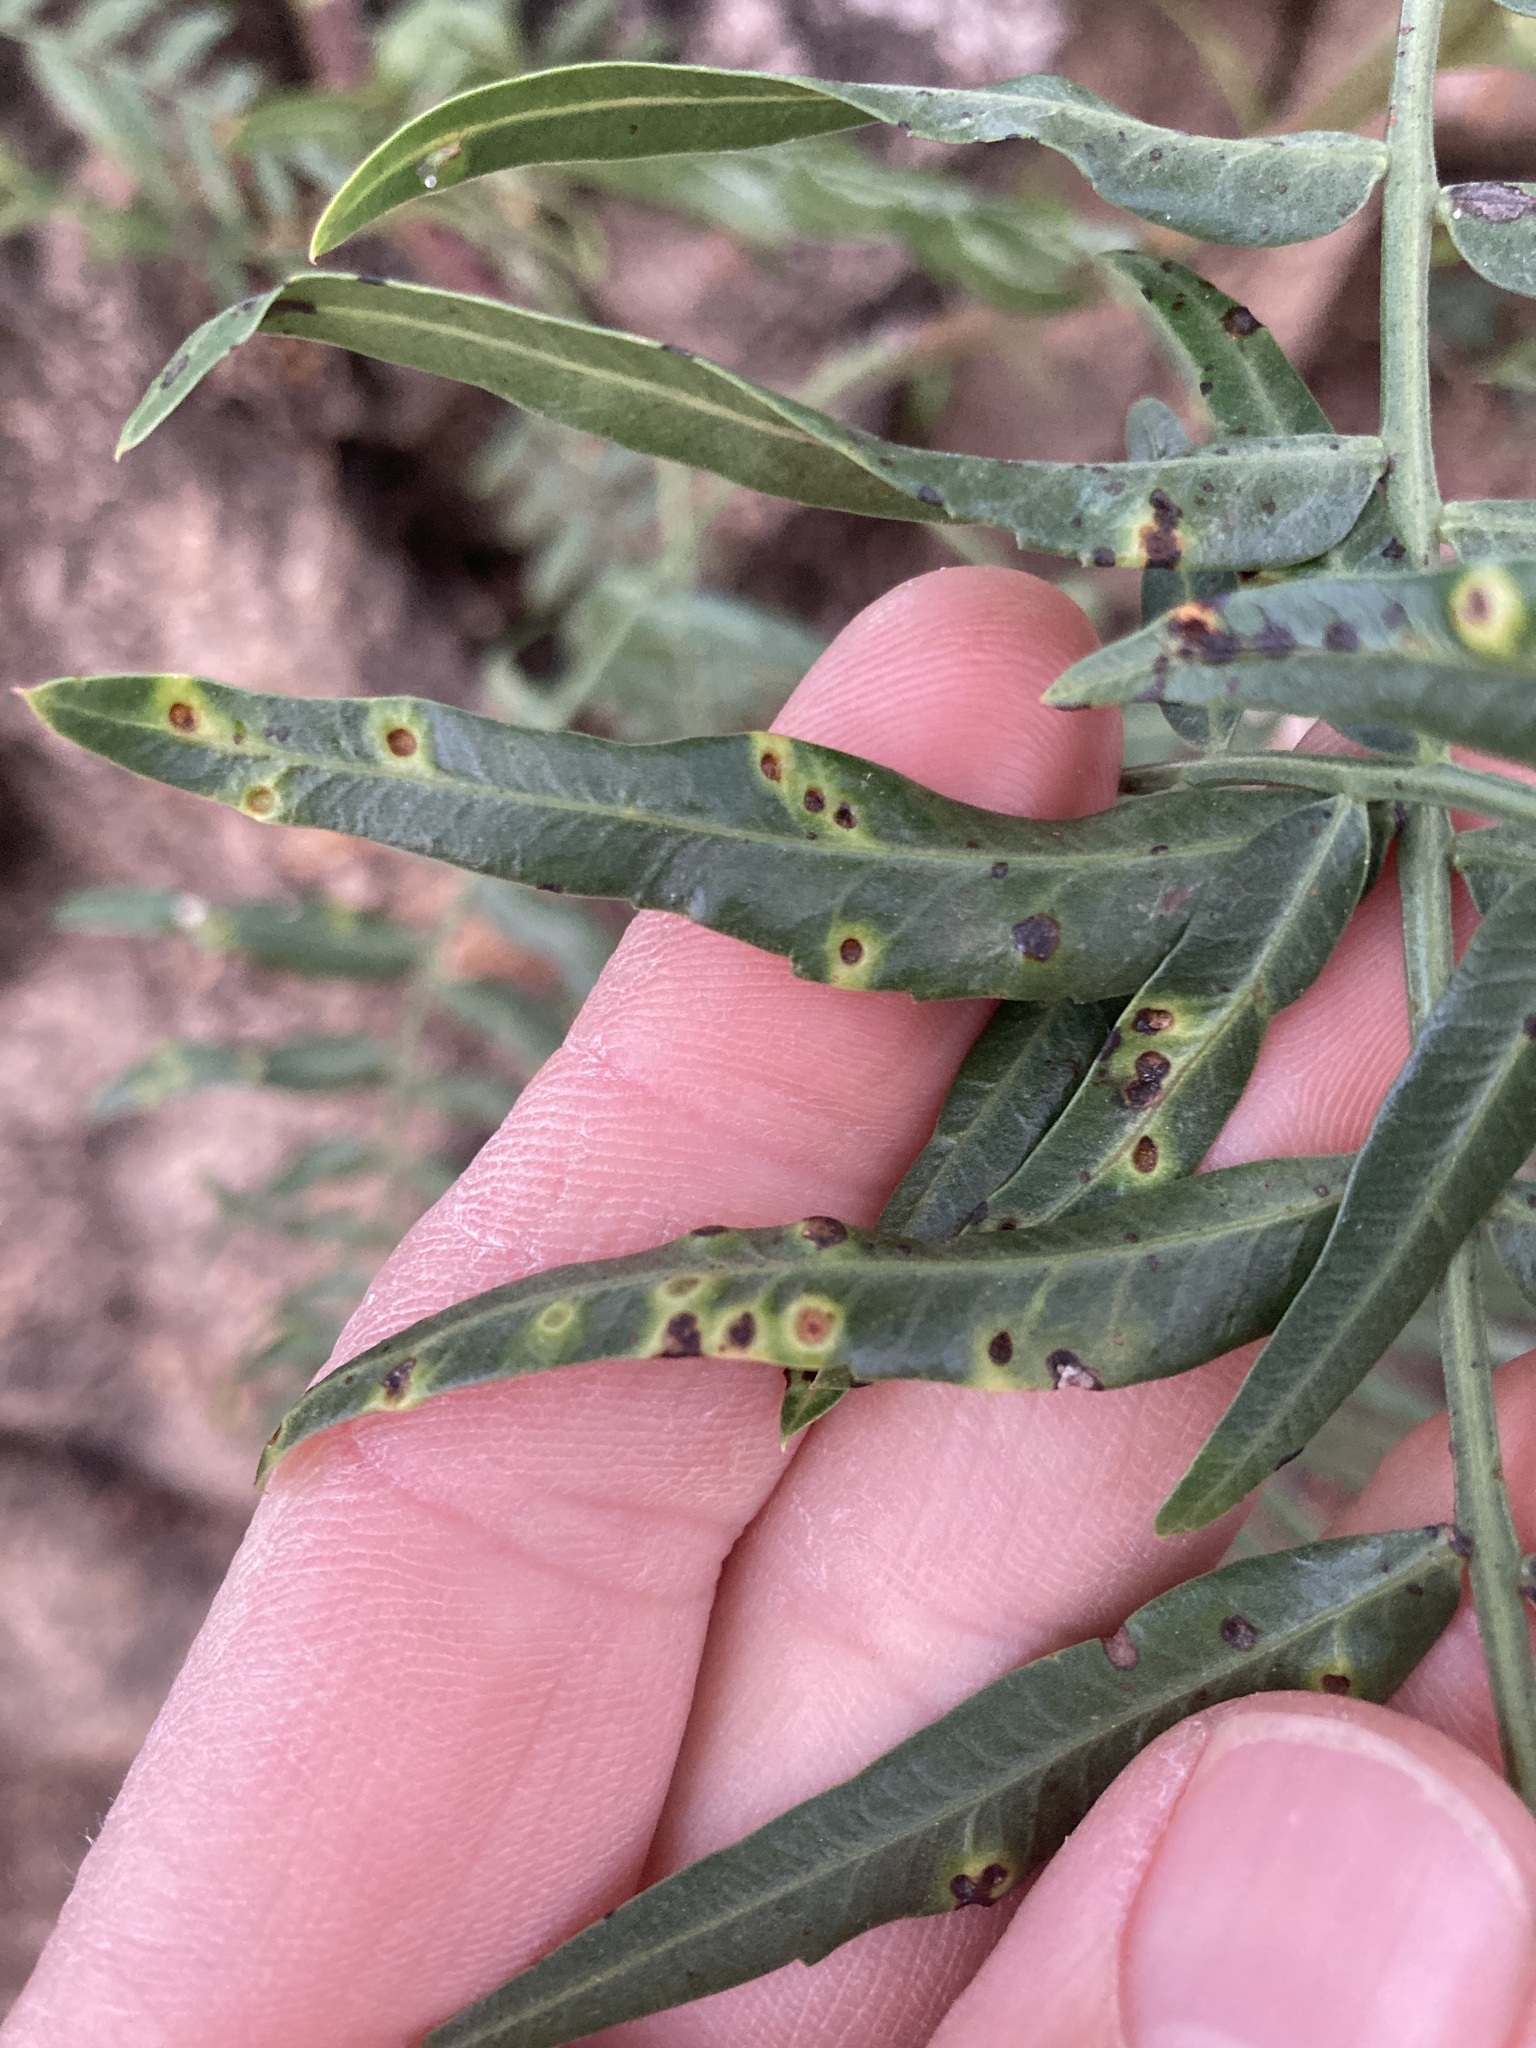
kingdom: Animalia
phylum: Arthropoda
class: Insecta
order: Hemiptera
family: Calophyidae
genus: Calophya
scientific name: Calophya schini
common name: Pepper tree psyllid
